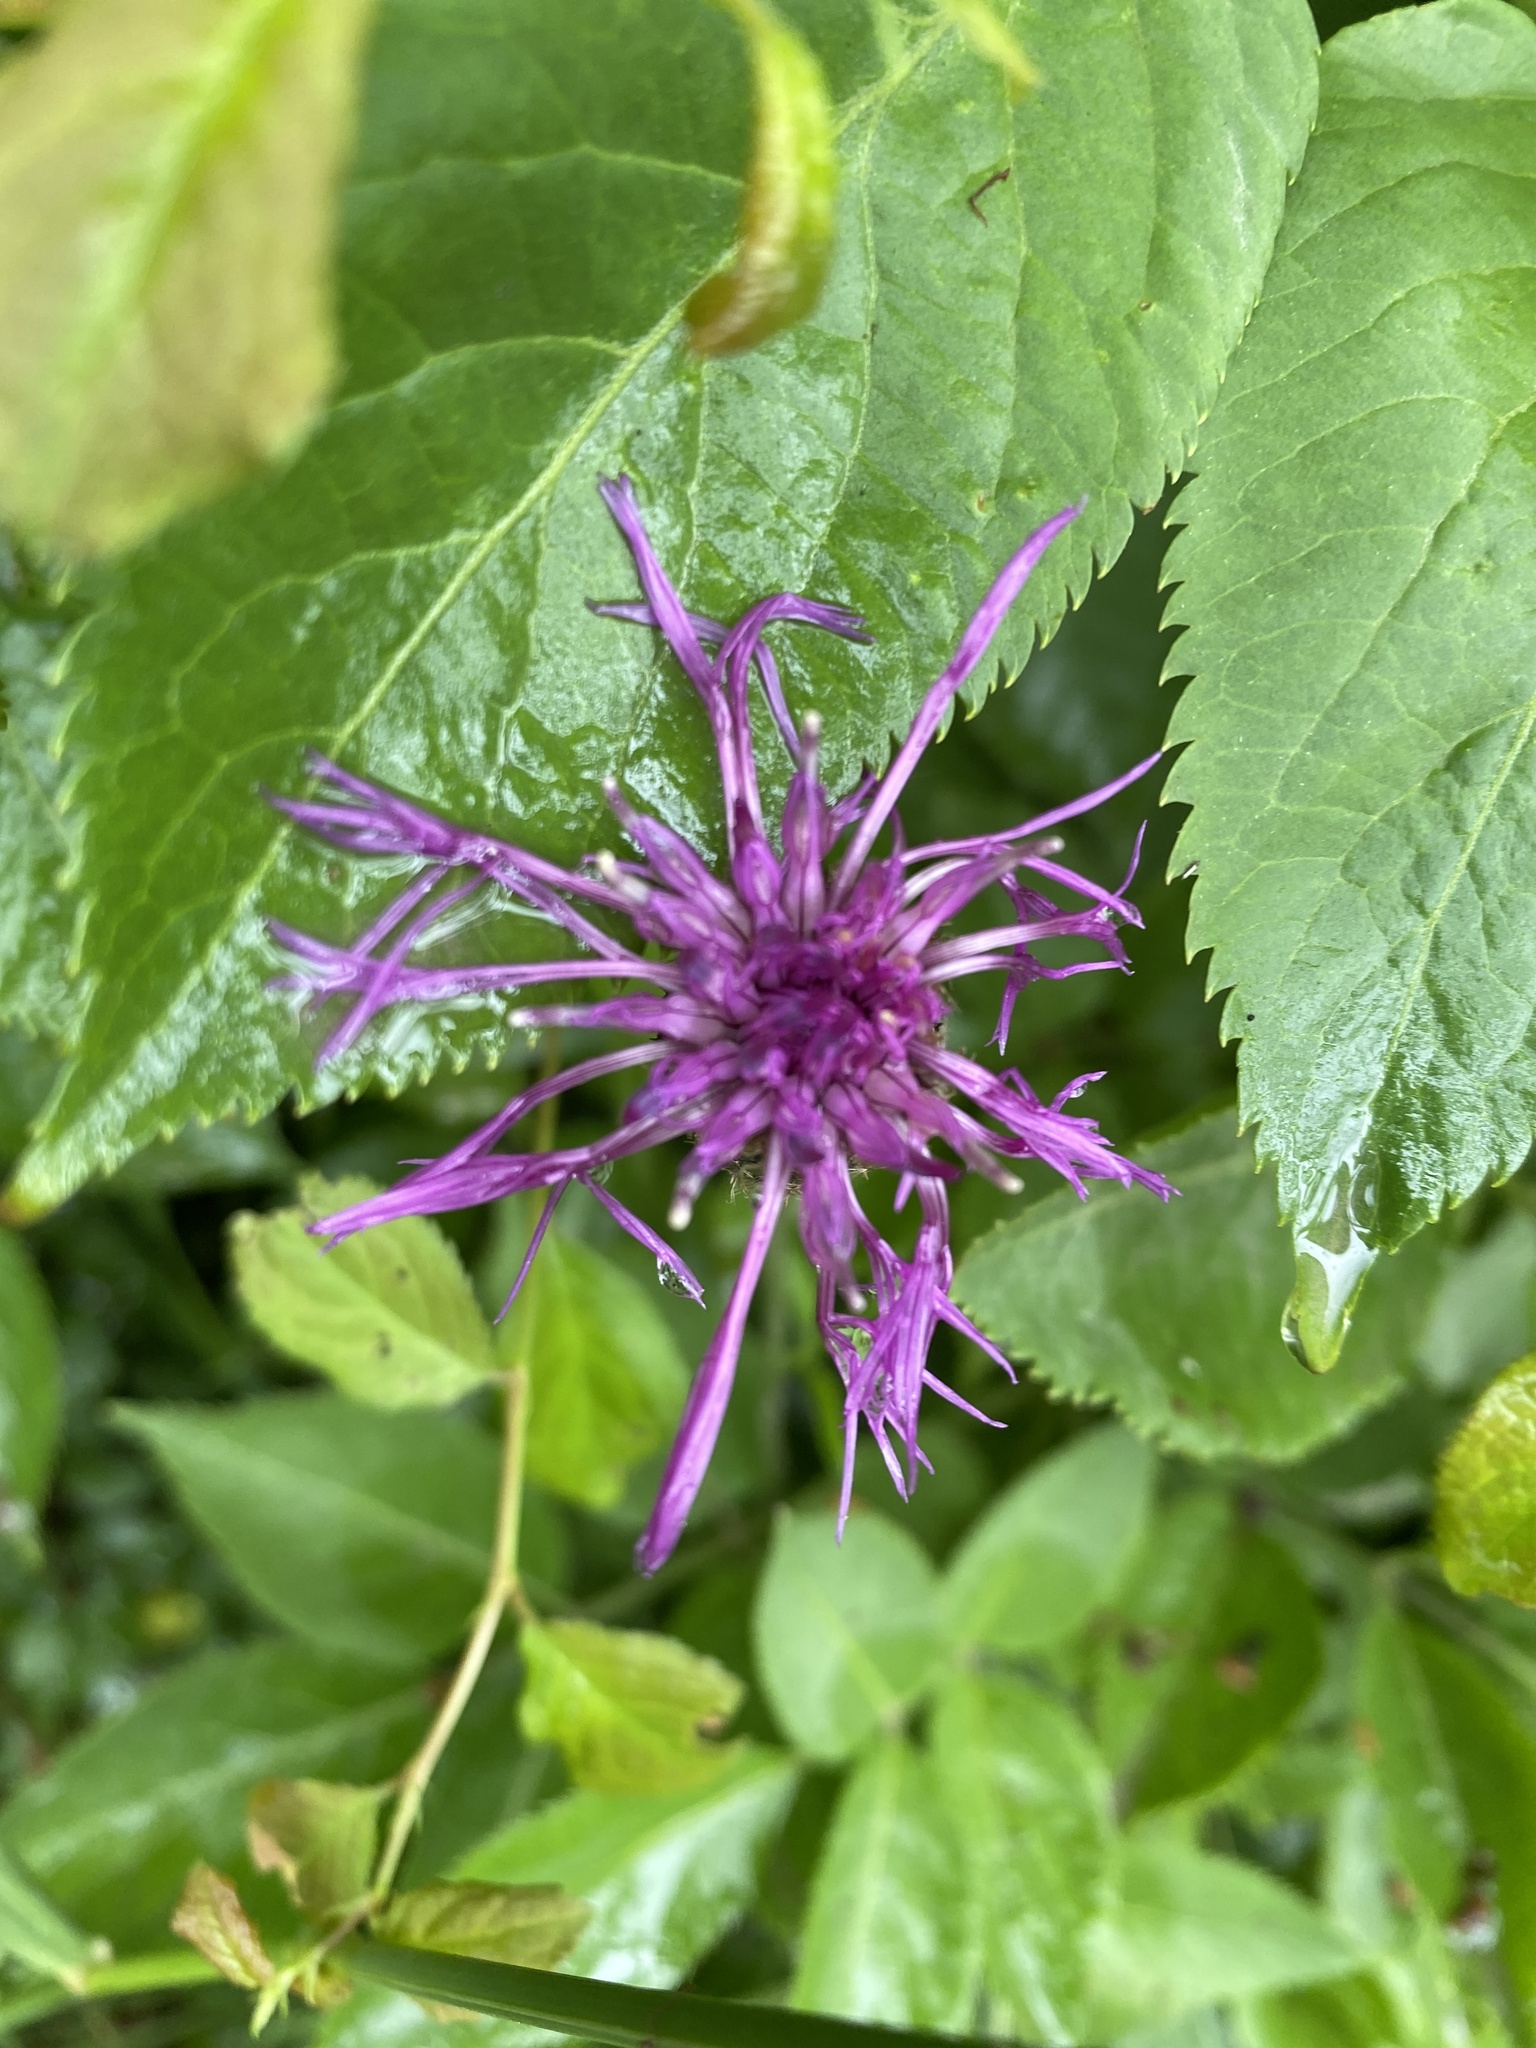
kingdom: Plantae
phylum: Tracheophyta
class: Magnoliopsida
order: Asterales
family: Asteraceae
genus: Centaurea
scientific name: Centaurea montana
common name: Perennial cornflower
